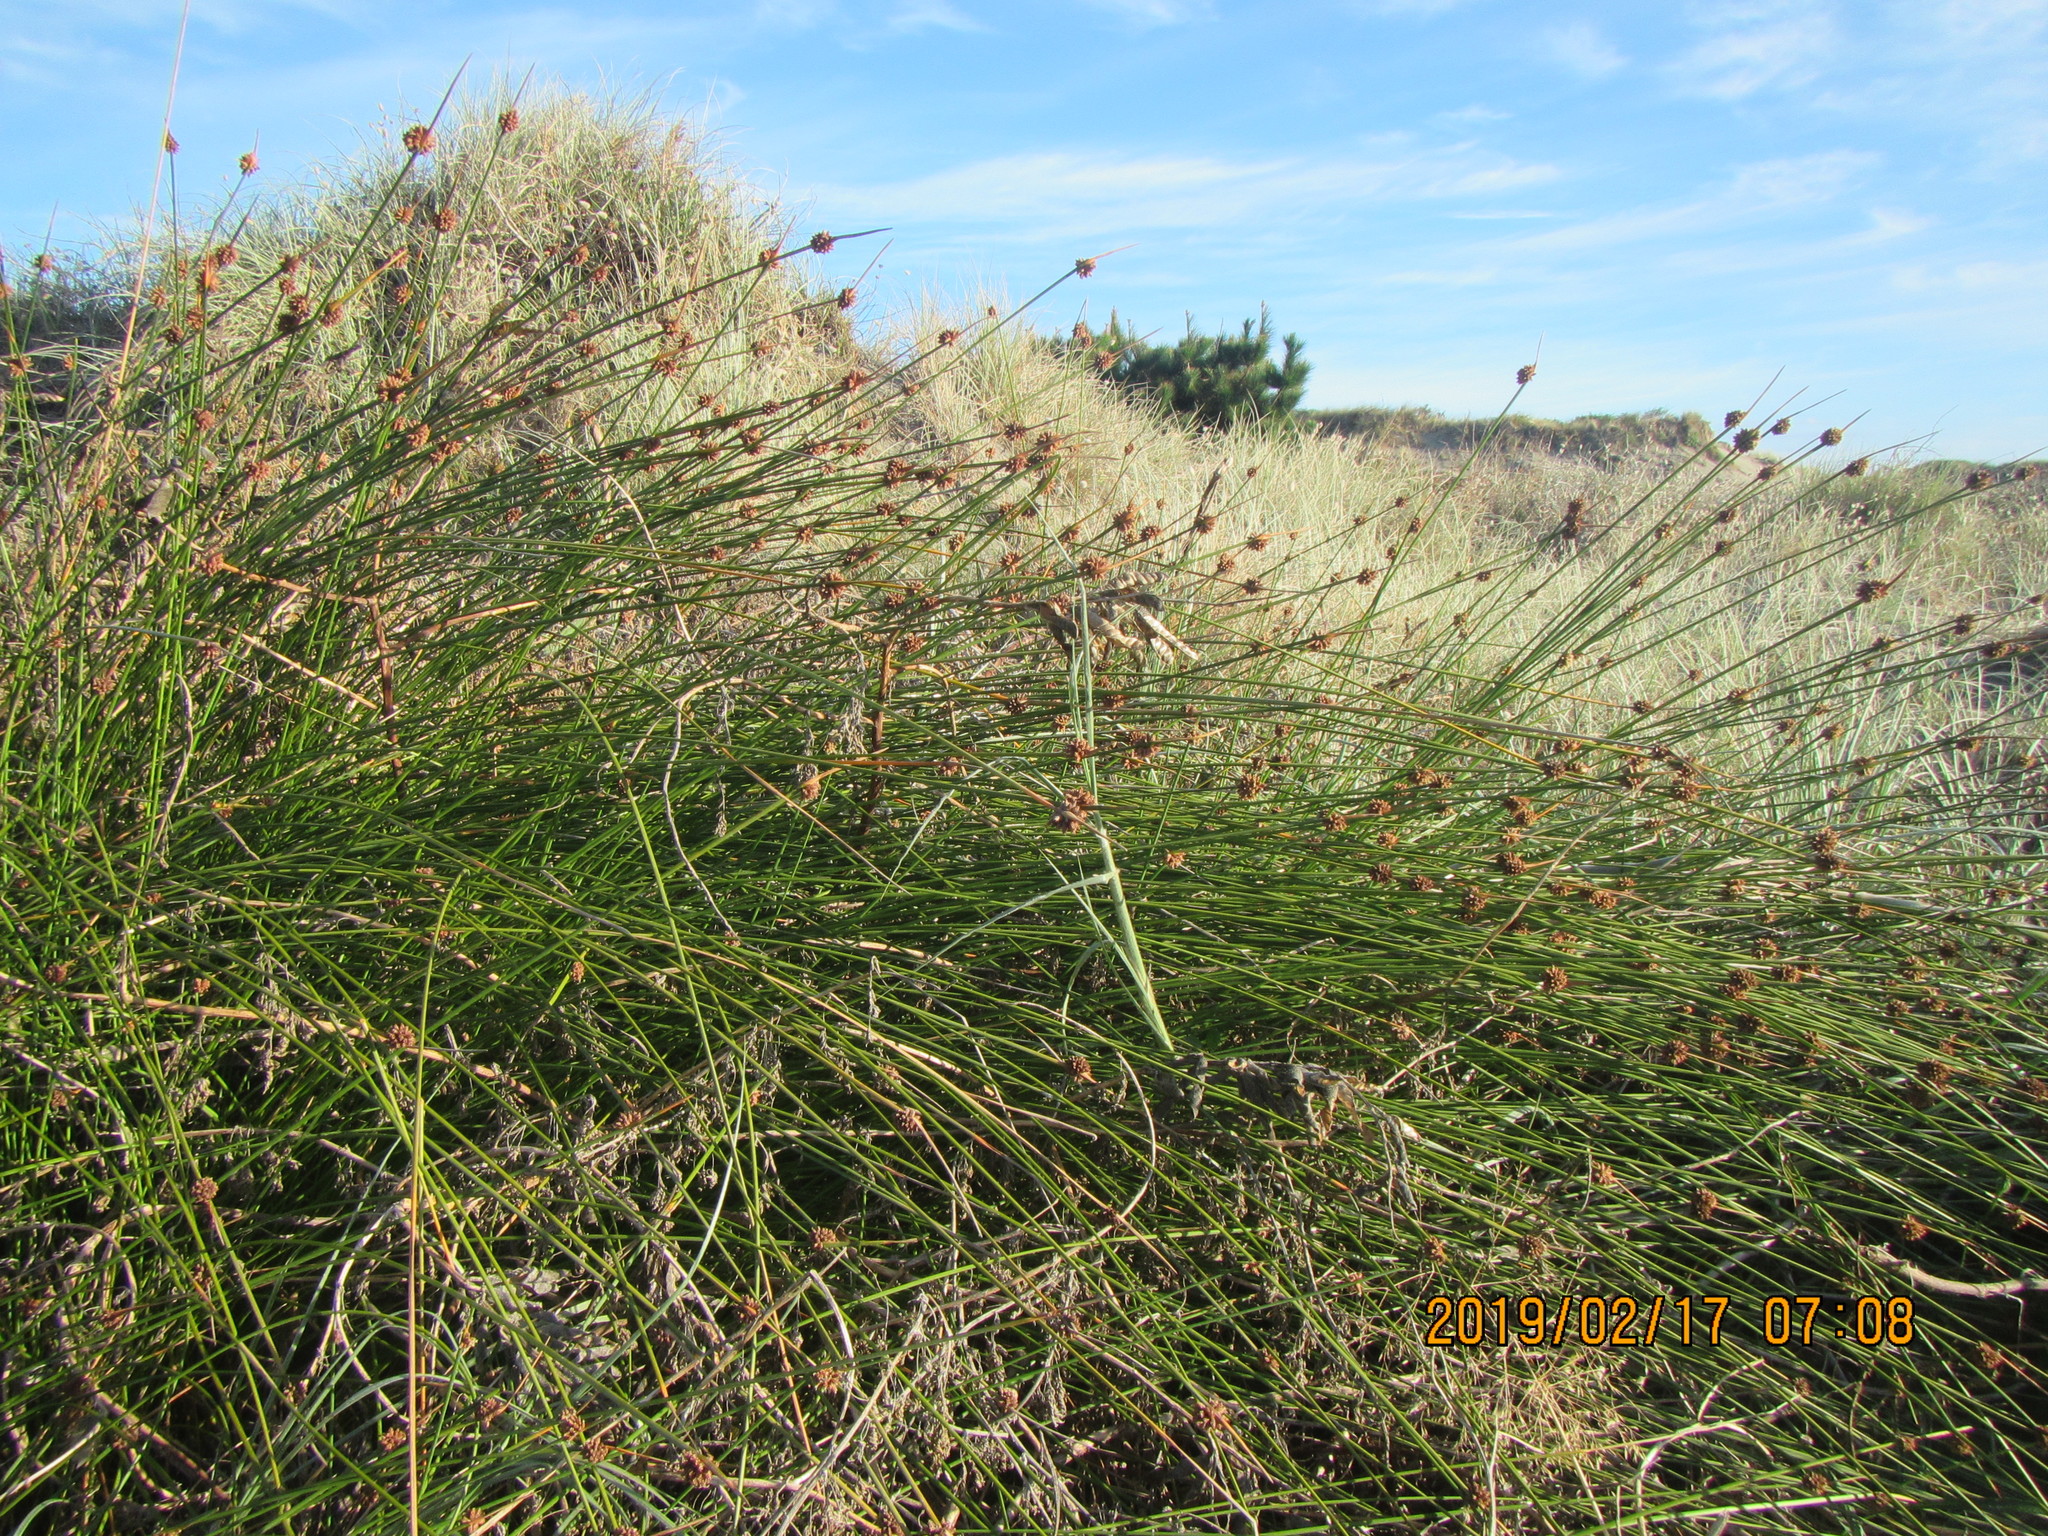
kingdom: Plantae
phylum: Tracheophyta
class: Liliopsida
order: Poales
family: Cyperaceae
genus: Ficinia
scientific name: Ficinia nodosa
